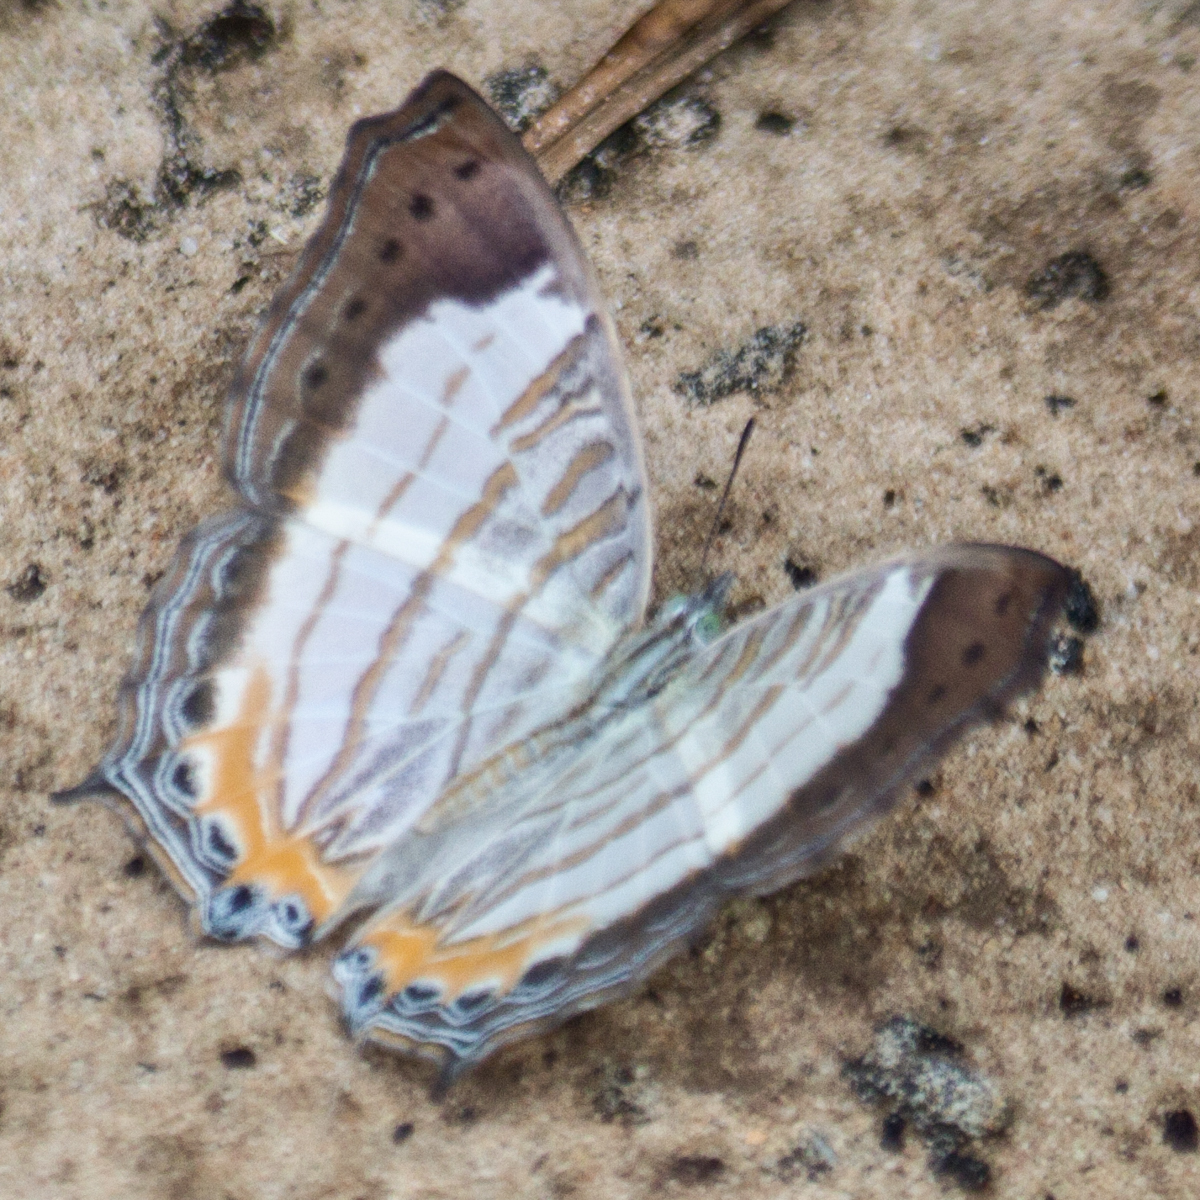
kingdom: Animalia
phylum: Arthropoda
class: Insecta
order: Lepidoptera
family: Nymphalidae
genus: Cyrestis
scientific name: Cyrestis themire
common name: Little mapwing
